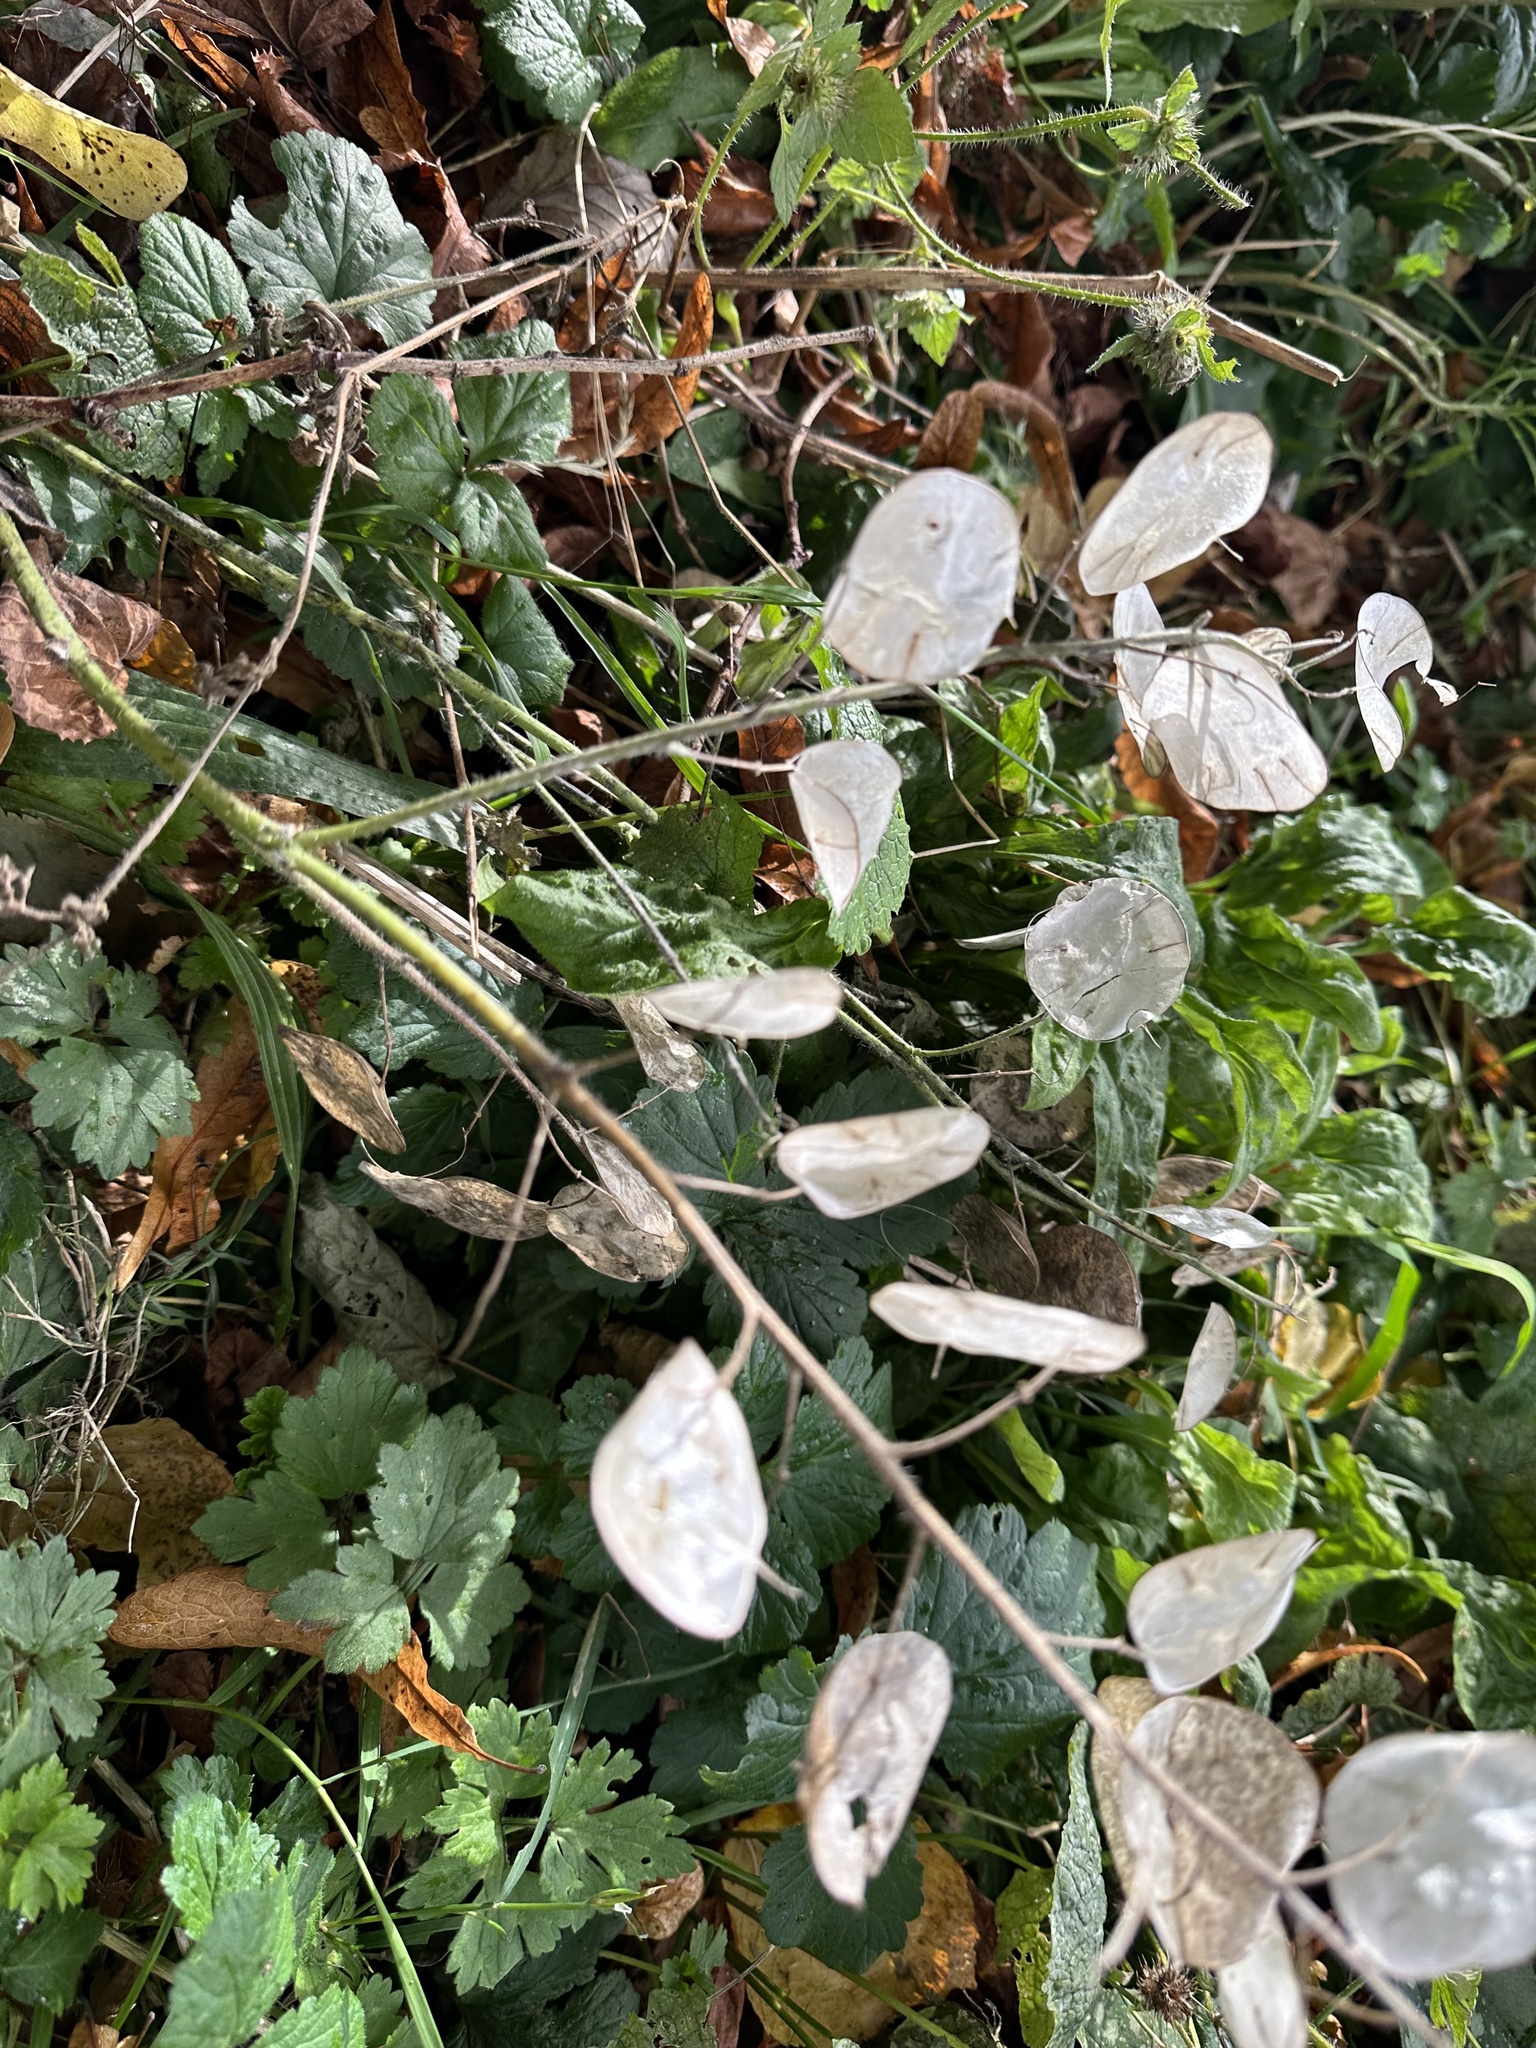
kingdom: Plantae
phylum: Tracheophyta
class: Magnoliopsida
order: Brassicales
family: Brassicaceae
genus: Lunaria
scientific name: Lunaria annua
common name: Honesty
